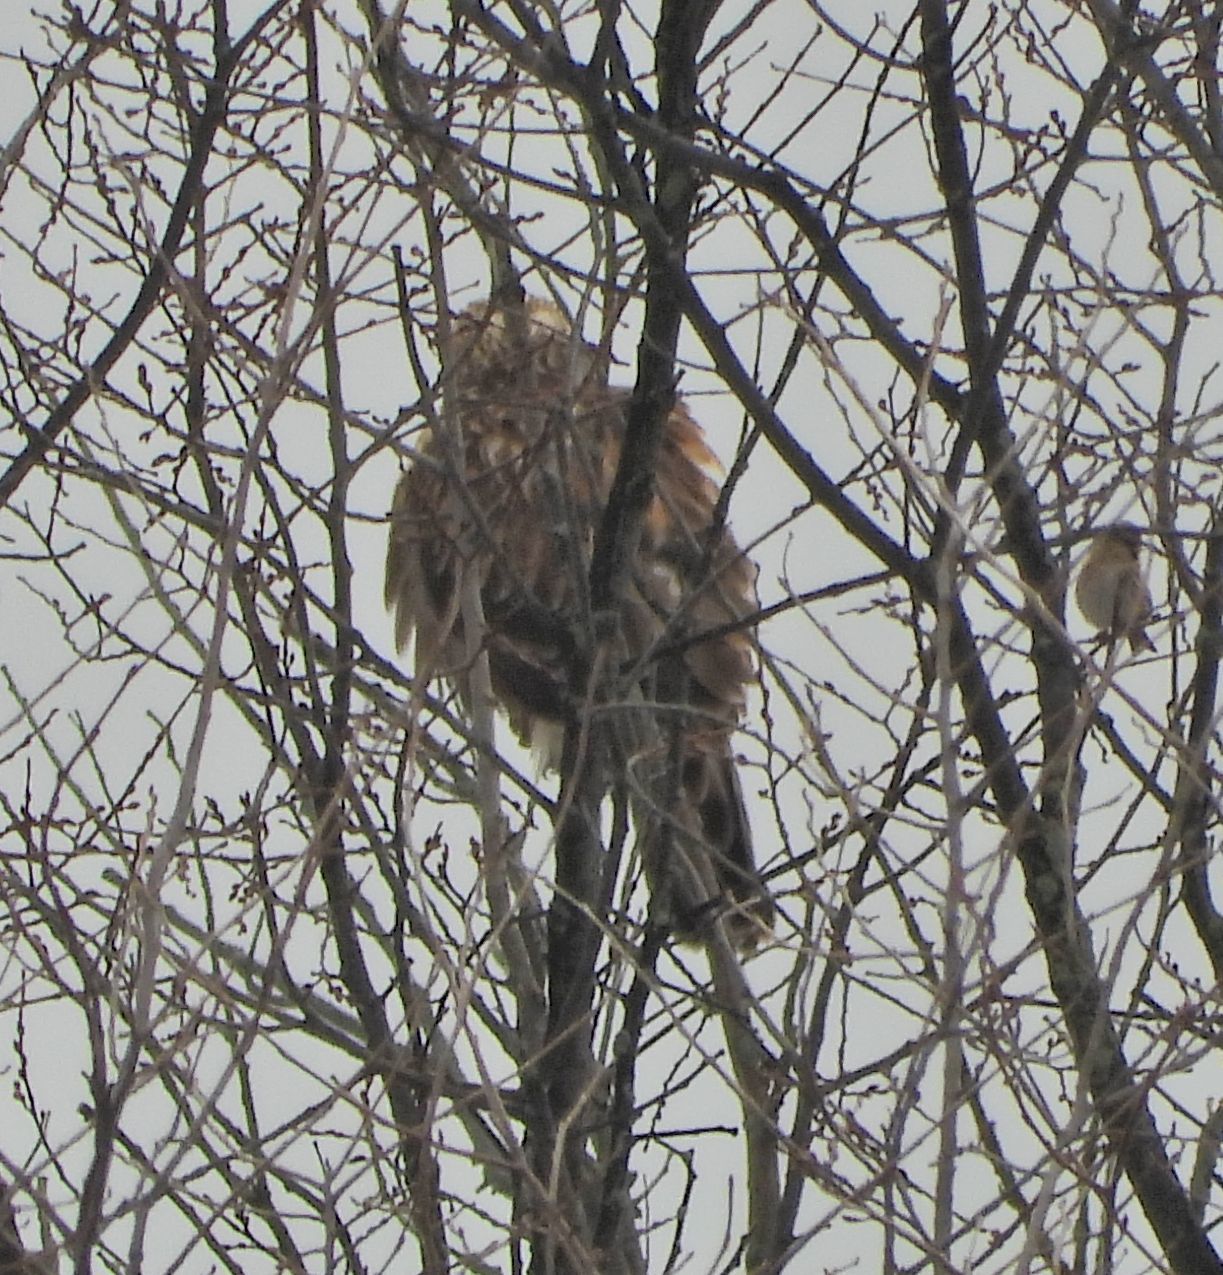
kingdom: Animalia
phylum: Chordata
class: Aves
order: Accipitriformes
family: Accipitridae
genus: Buteo
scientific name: Buteo jamaicensis
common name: Red-tailed hawk
